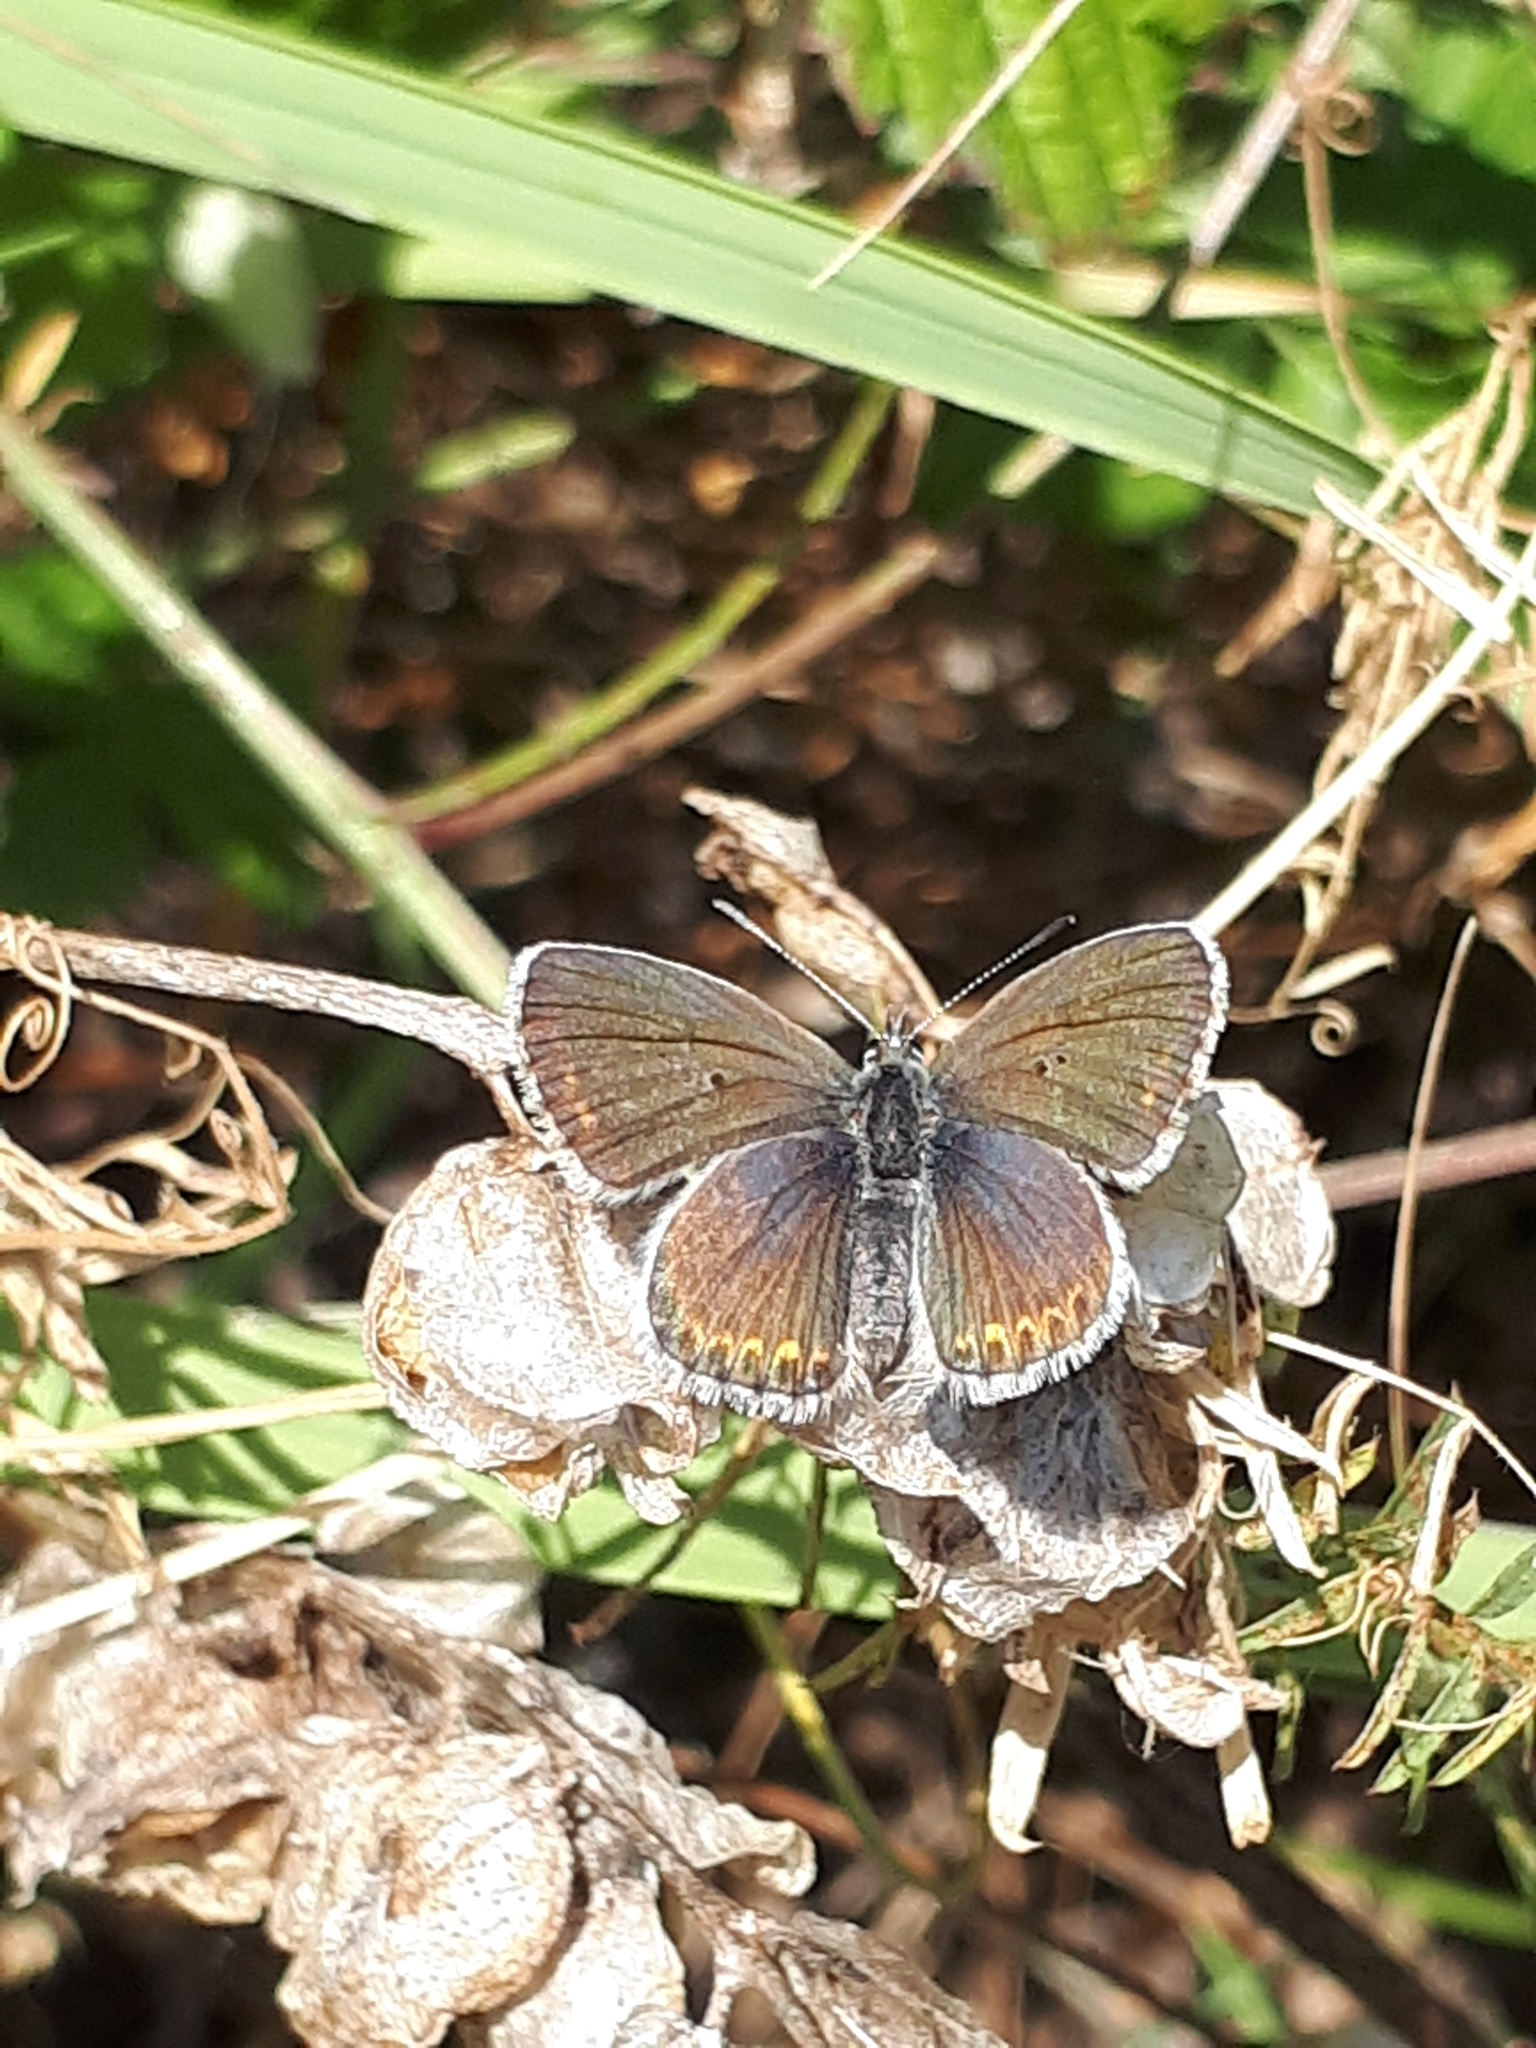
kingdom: Animalia
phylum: Arthropoda
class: Insecta
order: Lepidoptera
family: Lycaenidae
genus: Lycaeides
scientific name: Lycaeides idas
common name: Northern blue
